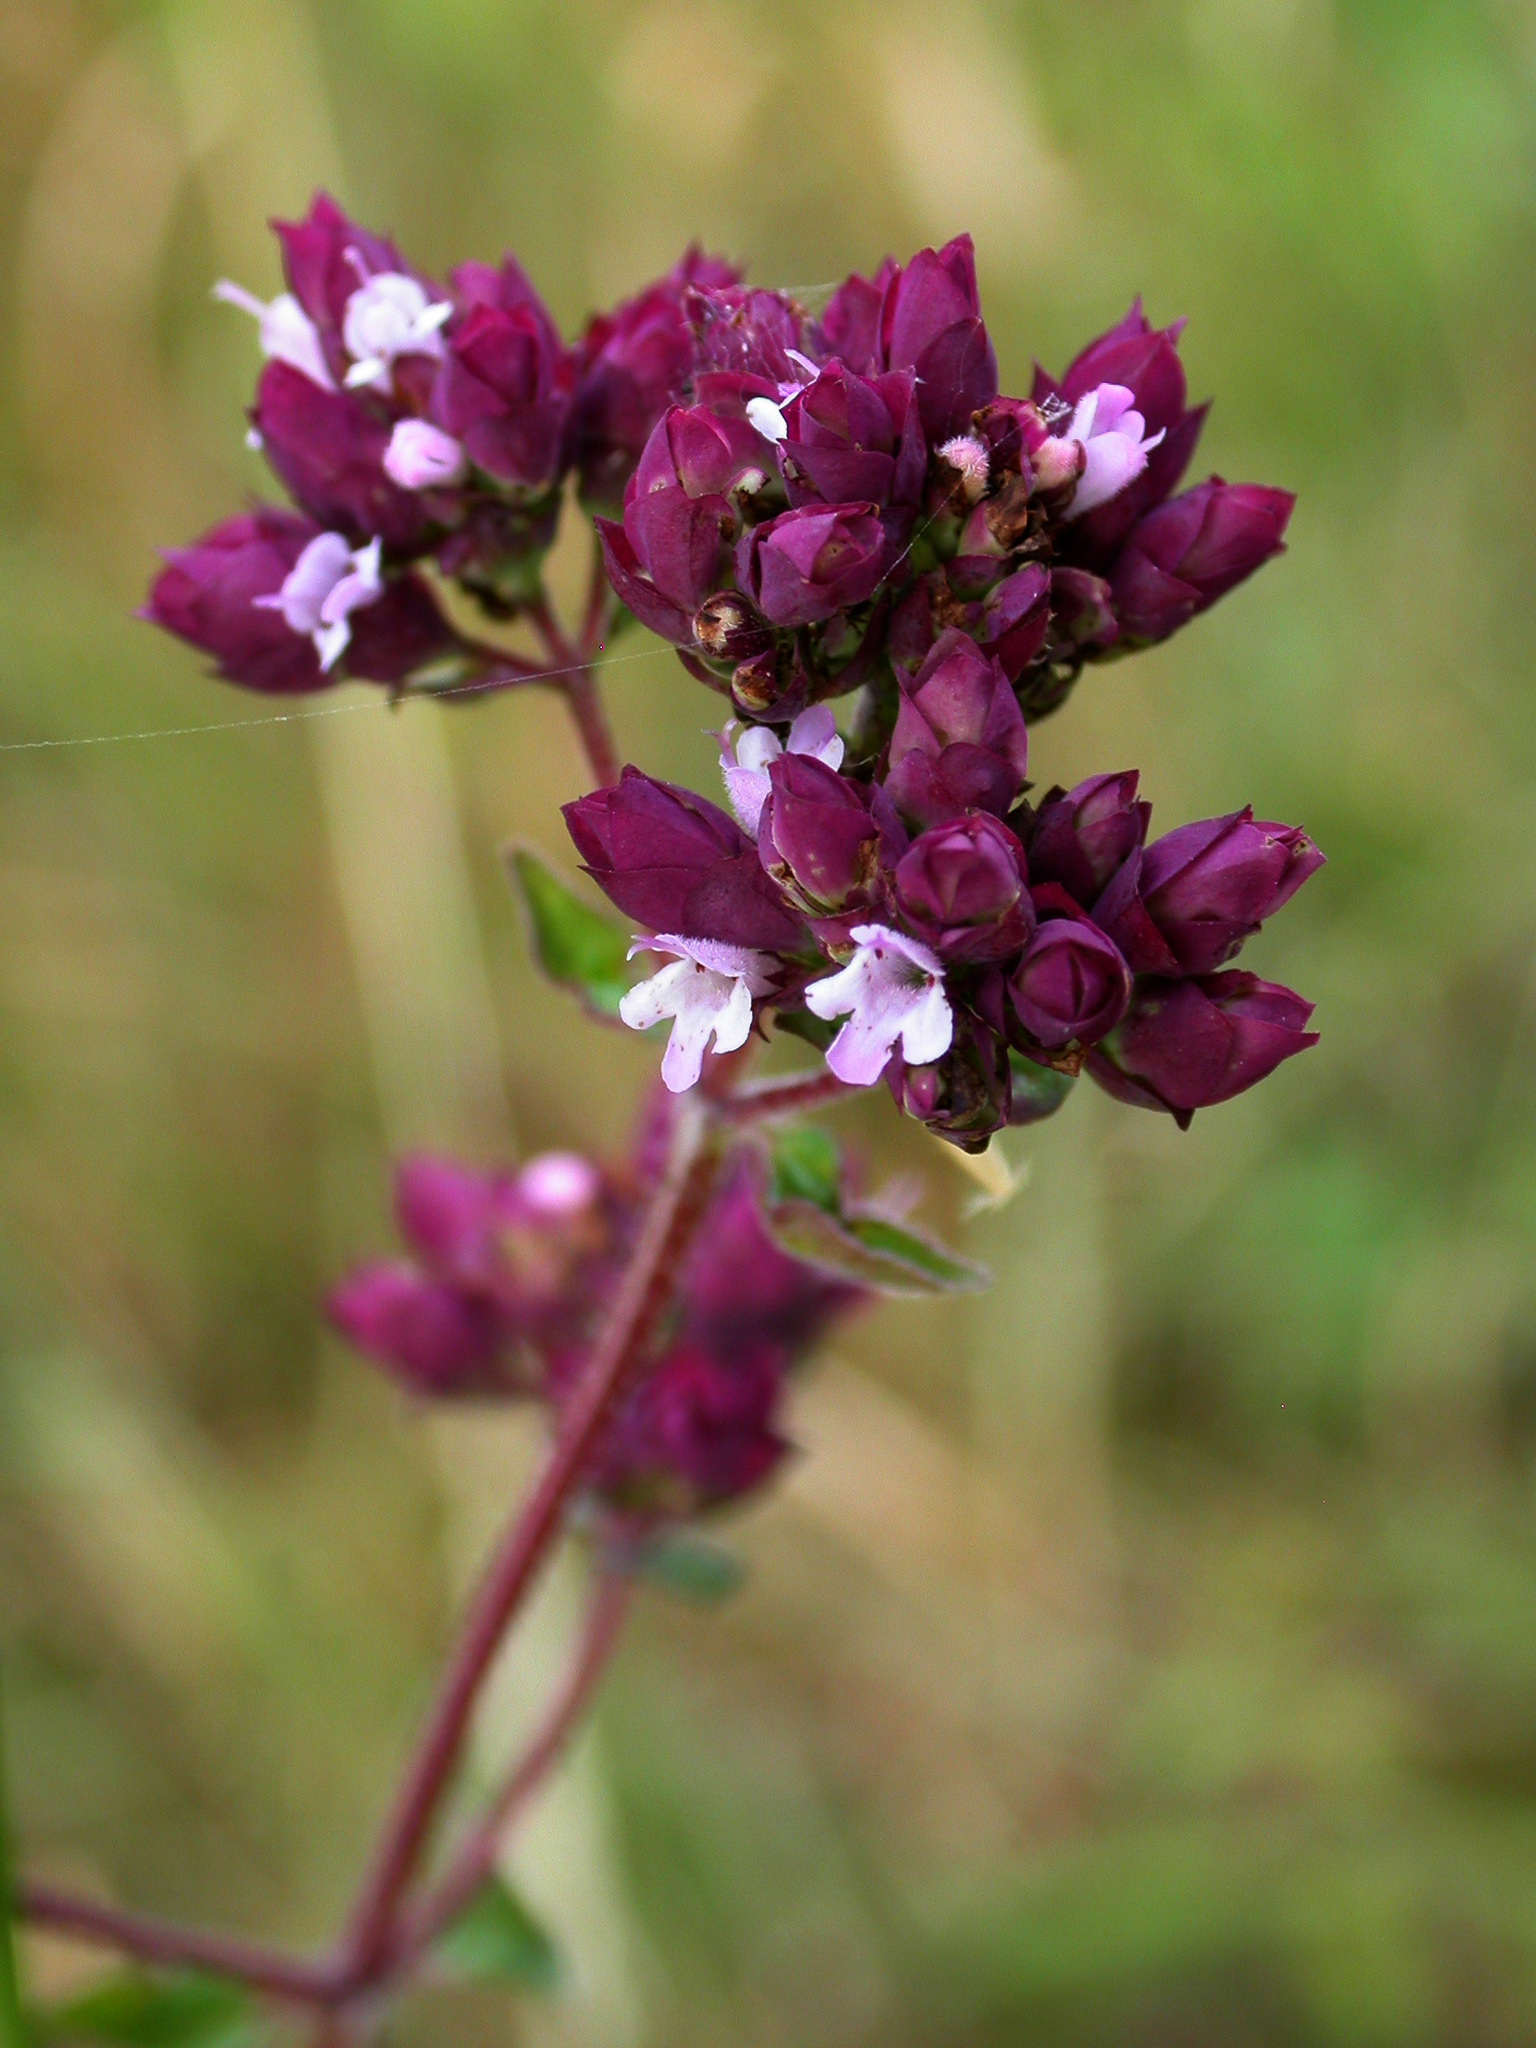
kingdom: Plantae
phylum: Tracheophyta
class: Magnoliopsida
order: Lamiales
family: Lamiaceae
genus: Origanum
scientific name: Origanum vulgare
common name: Wild marjoram
